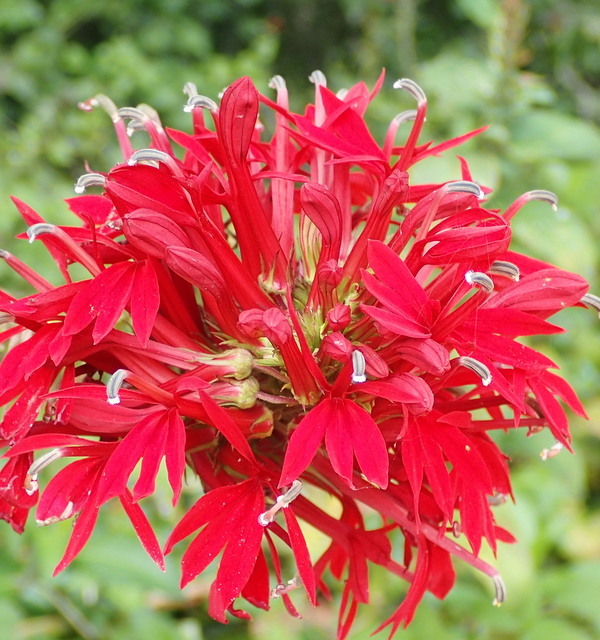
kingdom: Plantae
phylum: Tracheophyta
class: Magnoliopsida
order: Asterales
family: Campanulaceae
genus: Lobelia
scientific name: Lobelia cardinalis
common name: Cardinal flower
